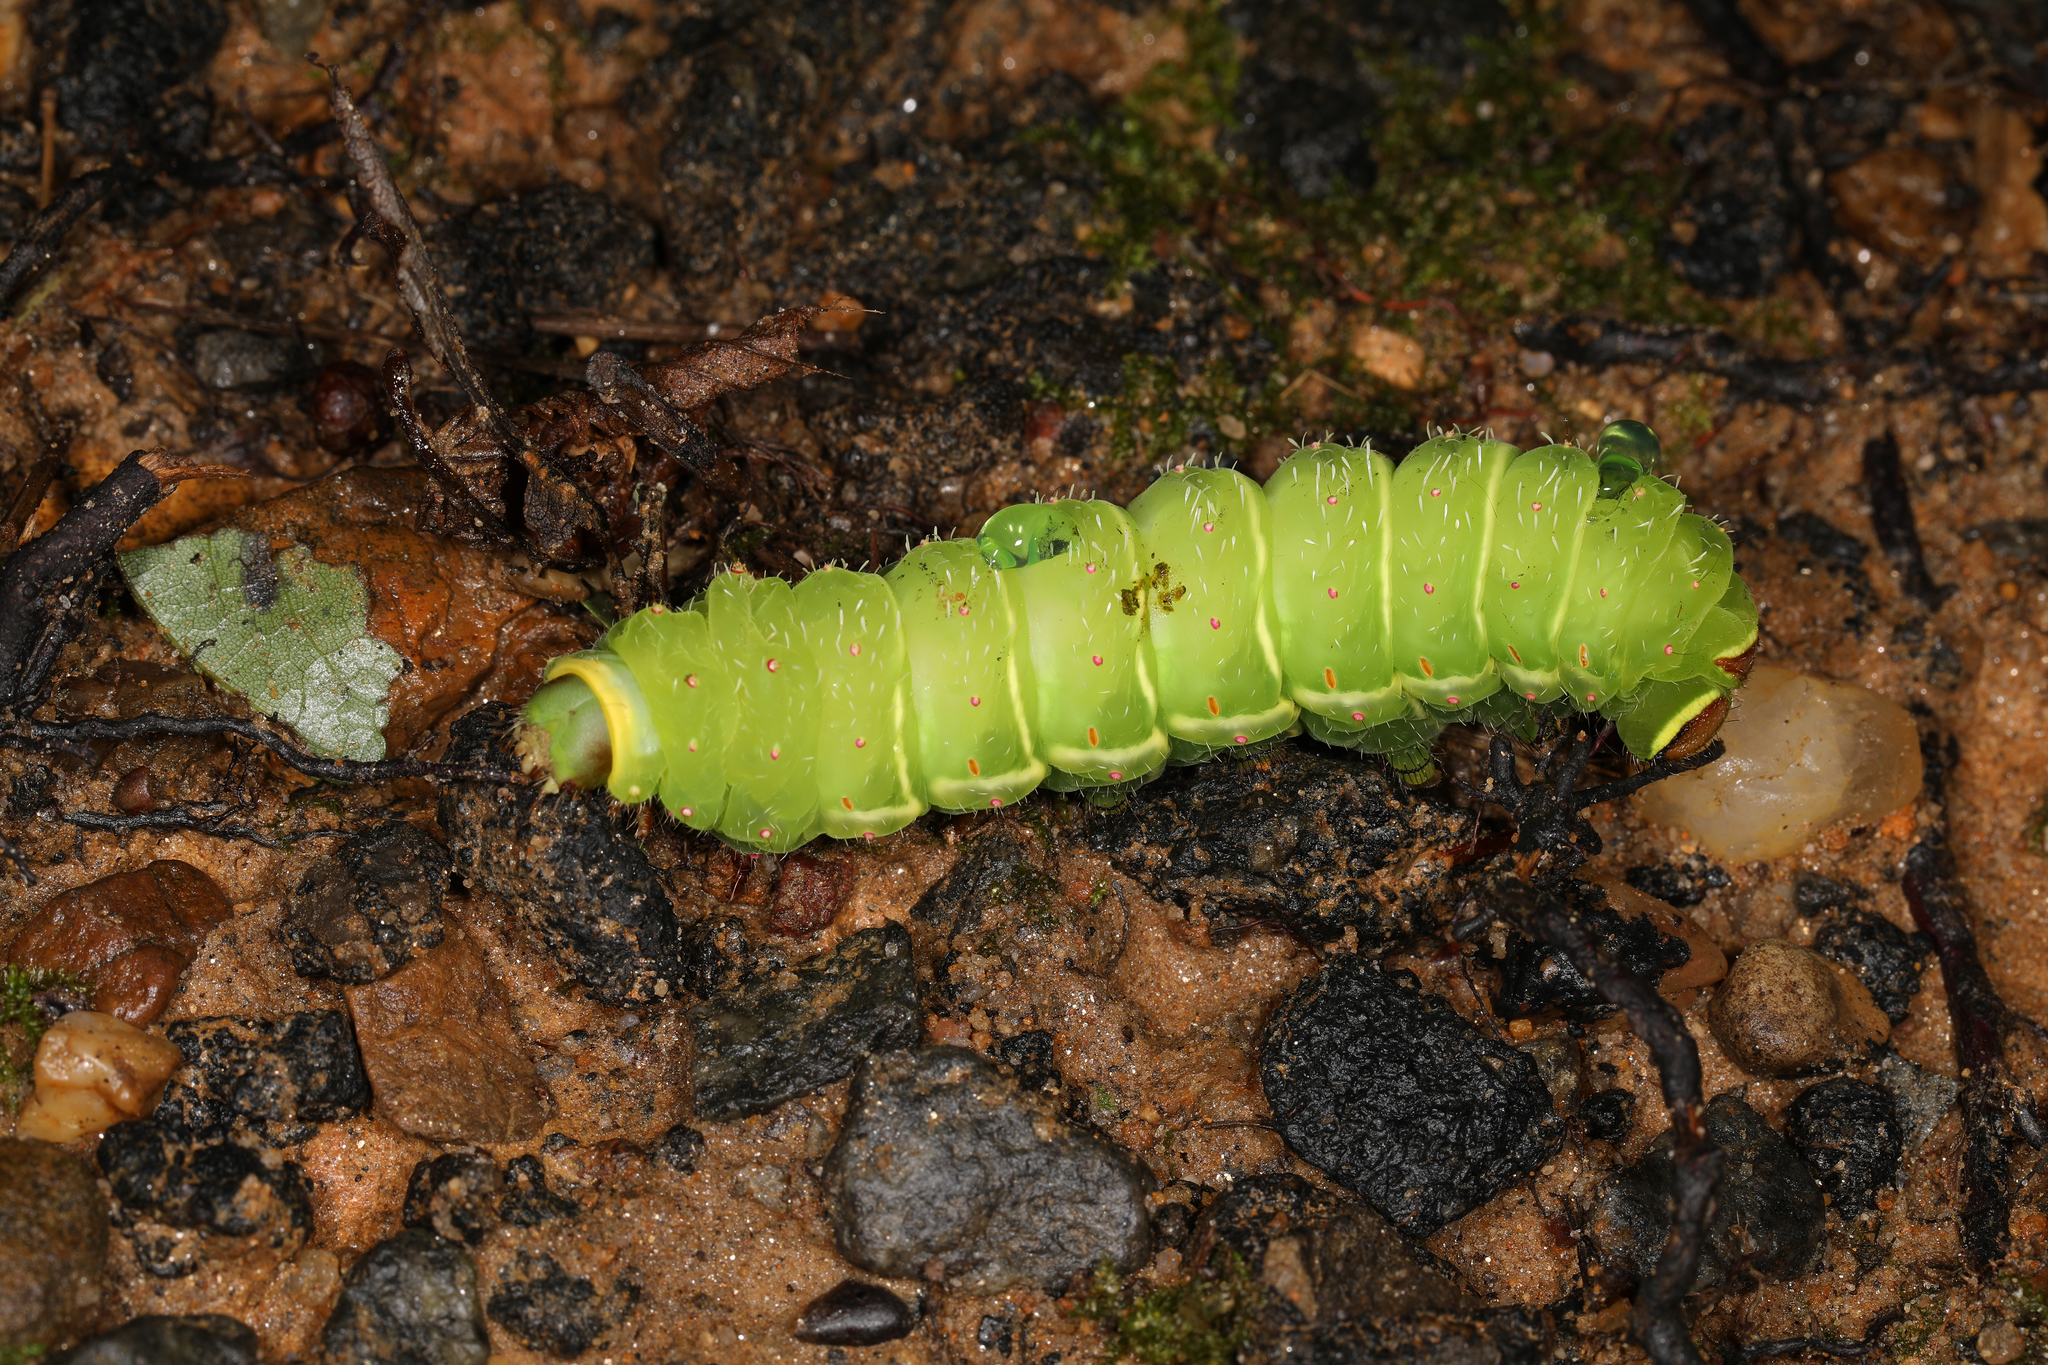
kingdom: Animalia
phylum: Arthropoda
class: Insecta
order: Lepidoptera
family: Saturniidae
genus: Actias
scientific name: Actias luna
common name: Luna moth
